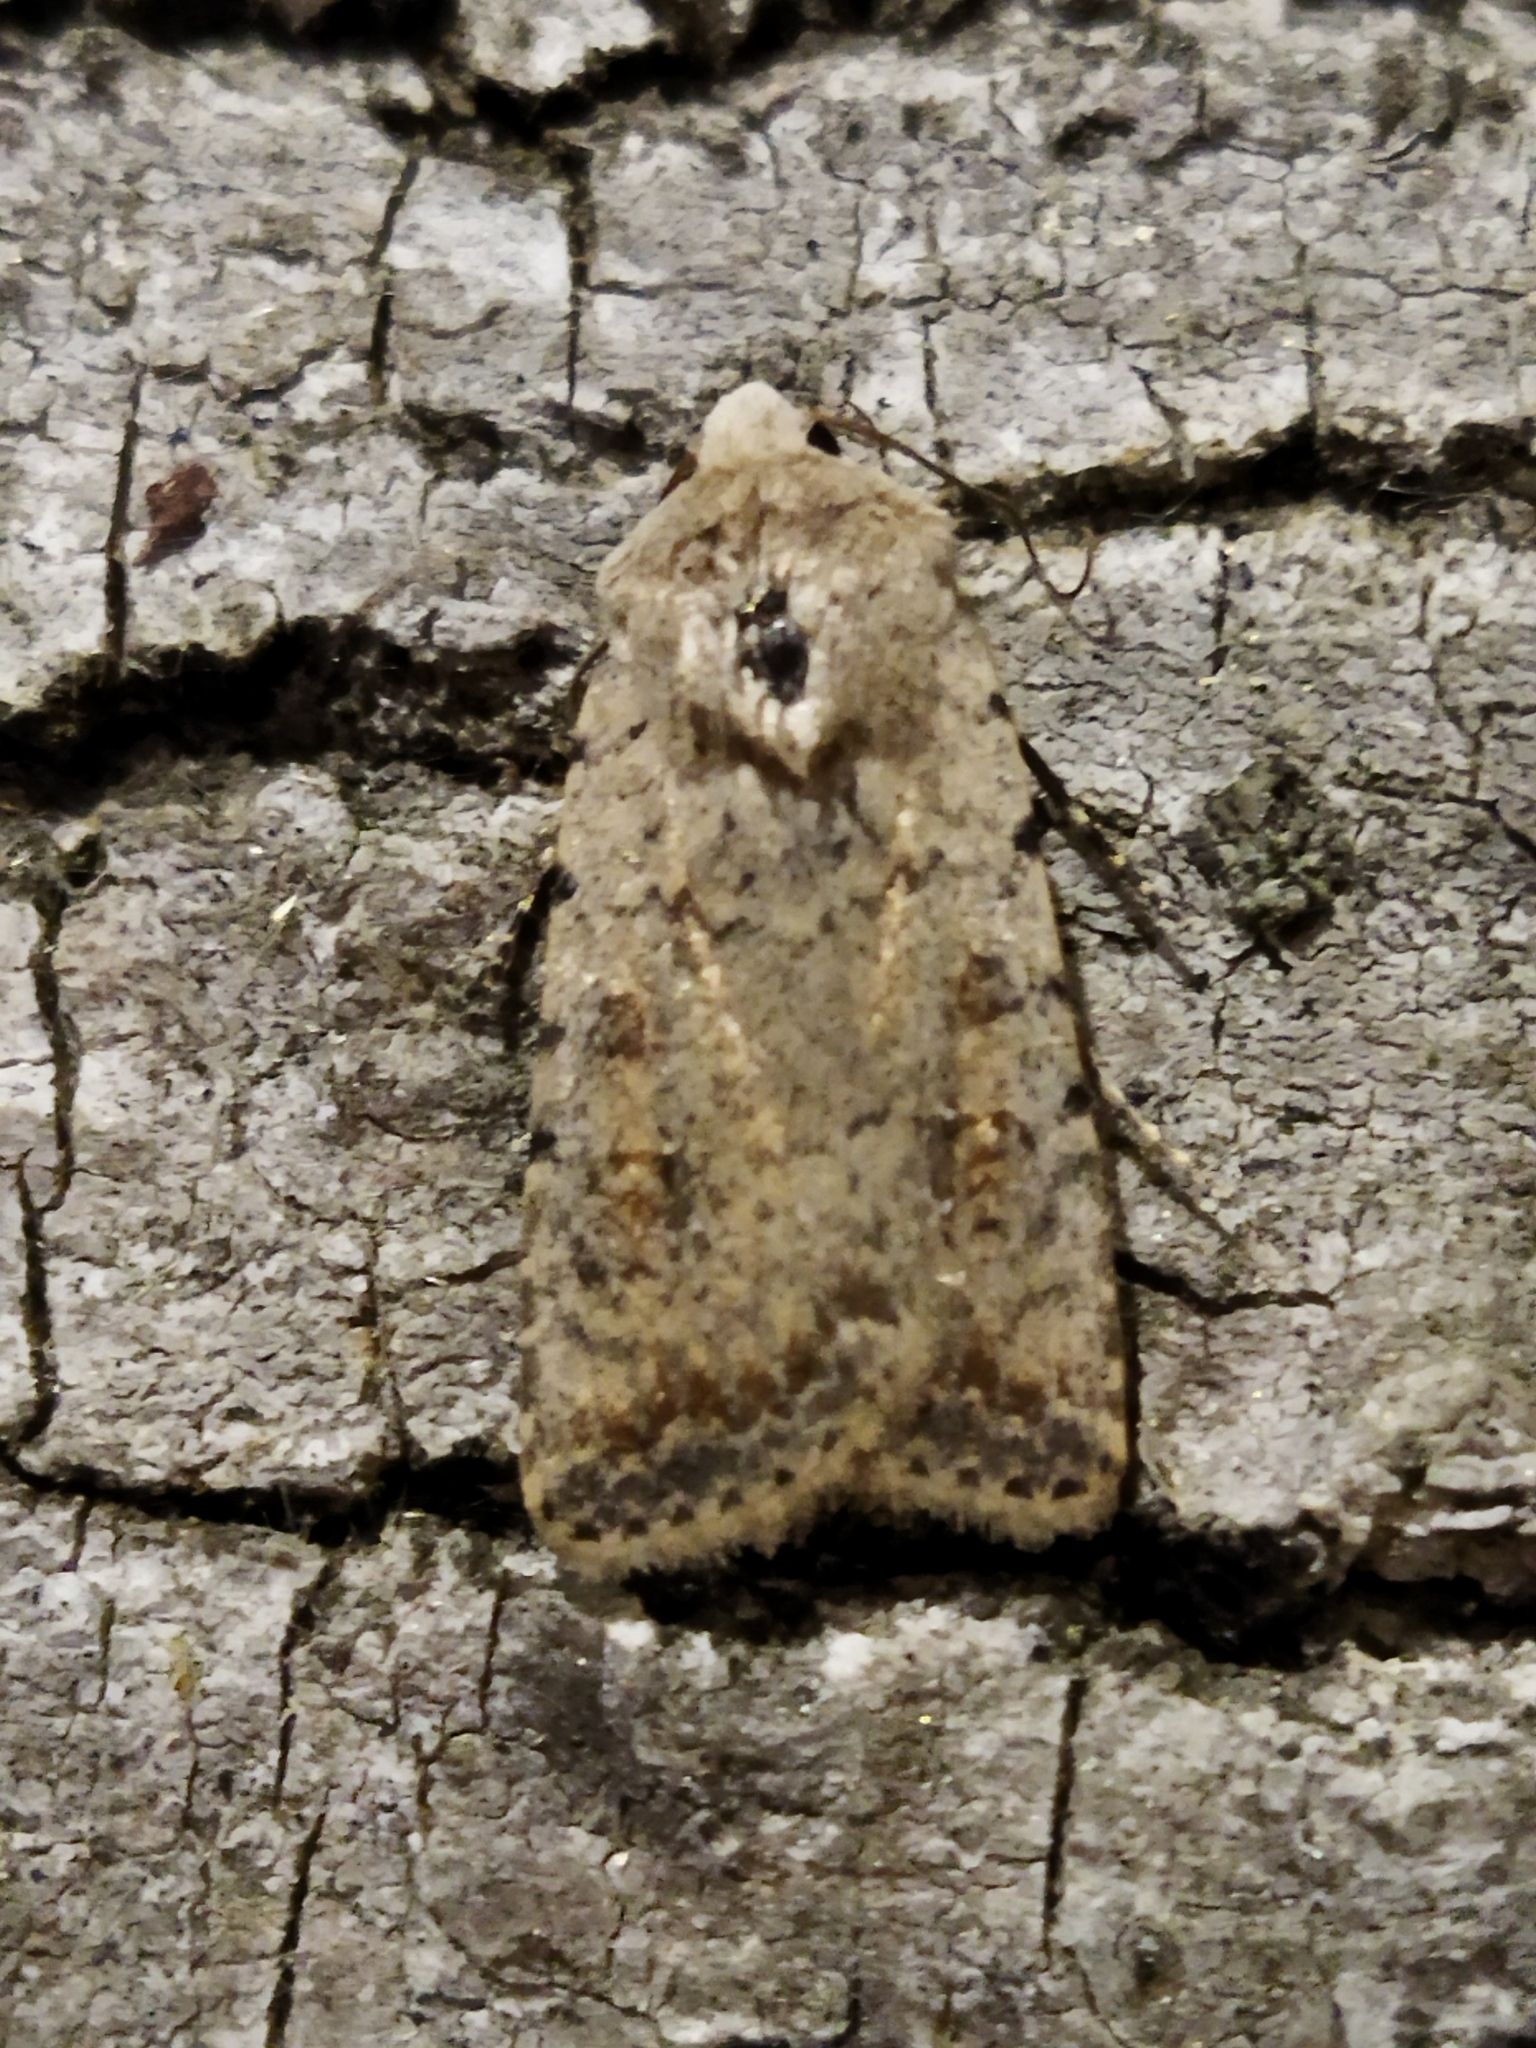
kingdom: Animalia
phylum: Arthropoda
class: Insecta
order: Lepidoptera
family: Noctuidae
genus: Caradrina
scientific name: Caradrina clavipalpis
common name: Pale mottled willow
